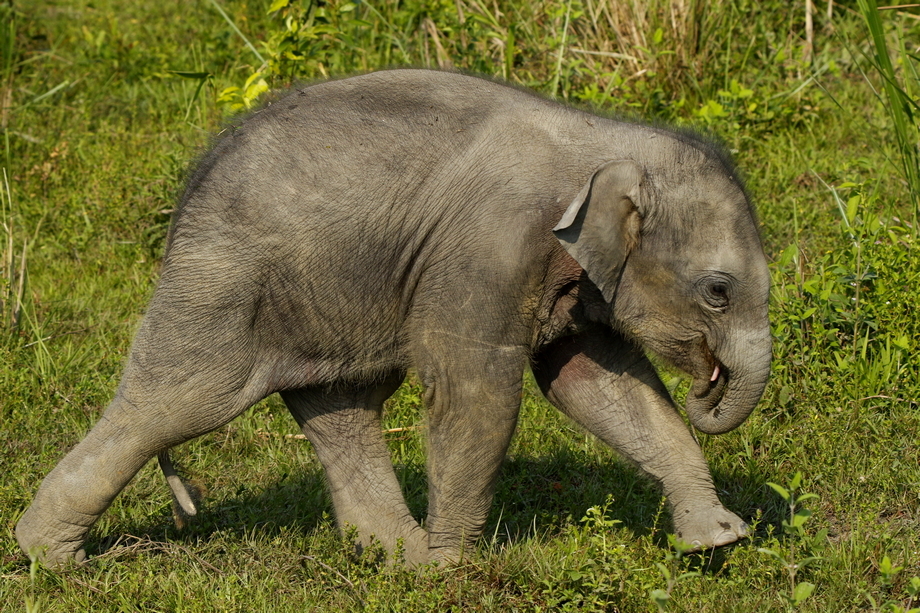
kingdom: Animalia
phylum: Chordata
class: Mammalia
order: Proboscidea
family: Elephantidae
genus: Elephas
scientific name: Elephas maximus
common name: Asian elephant
